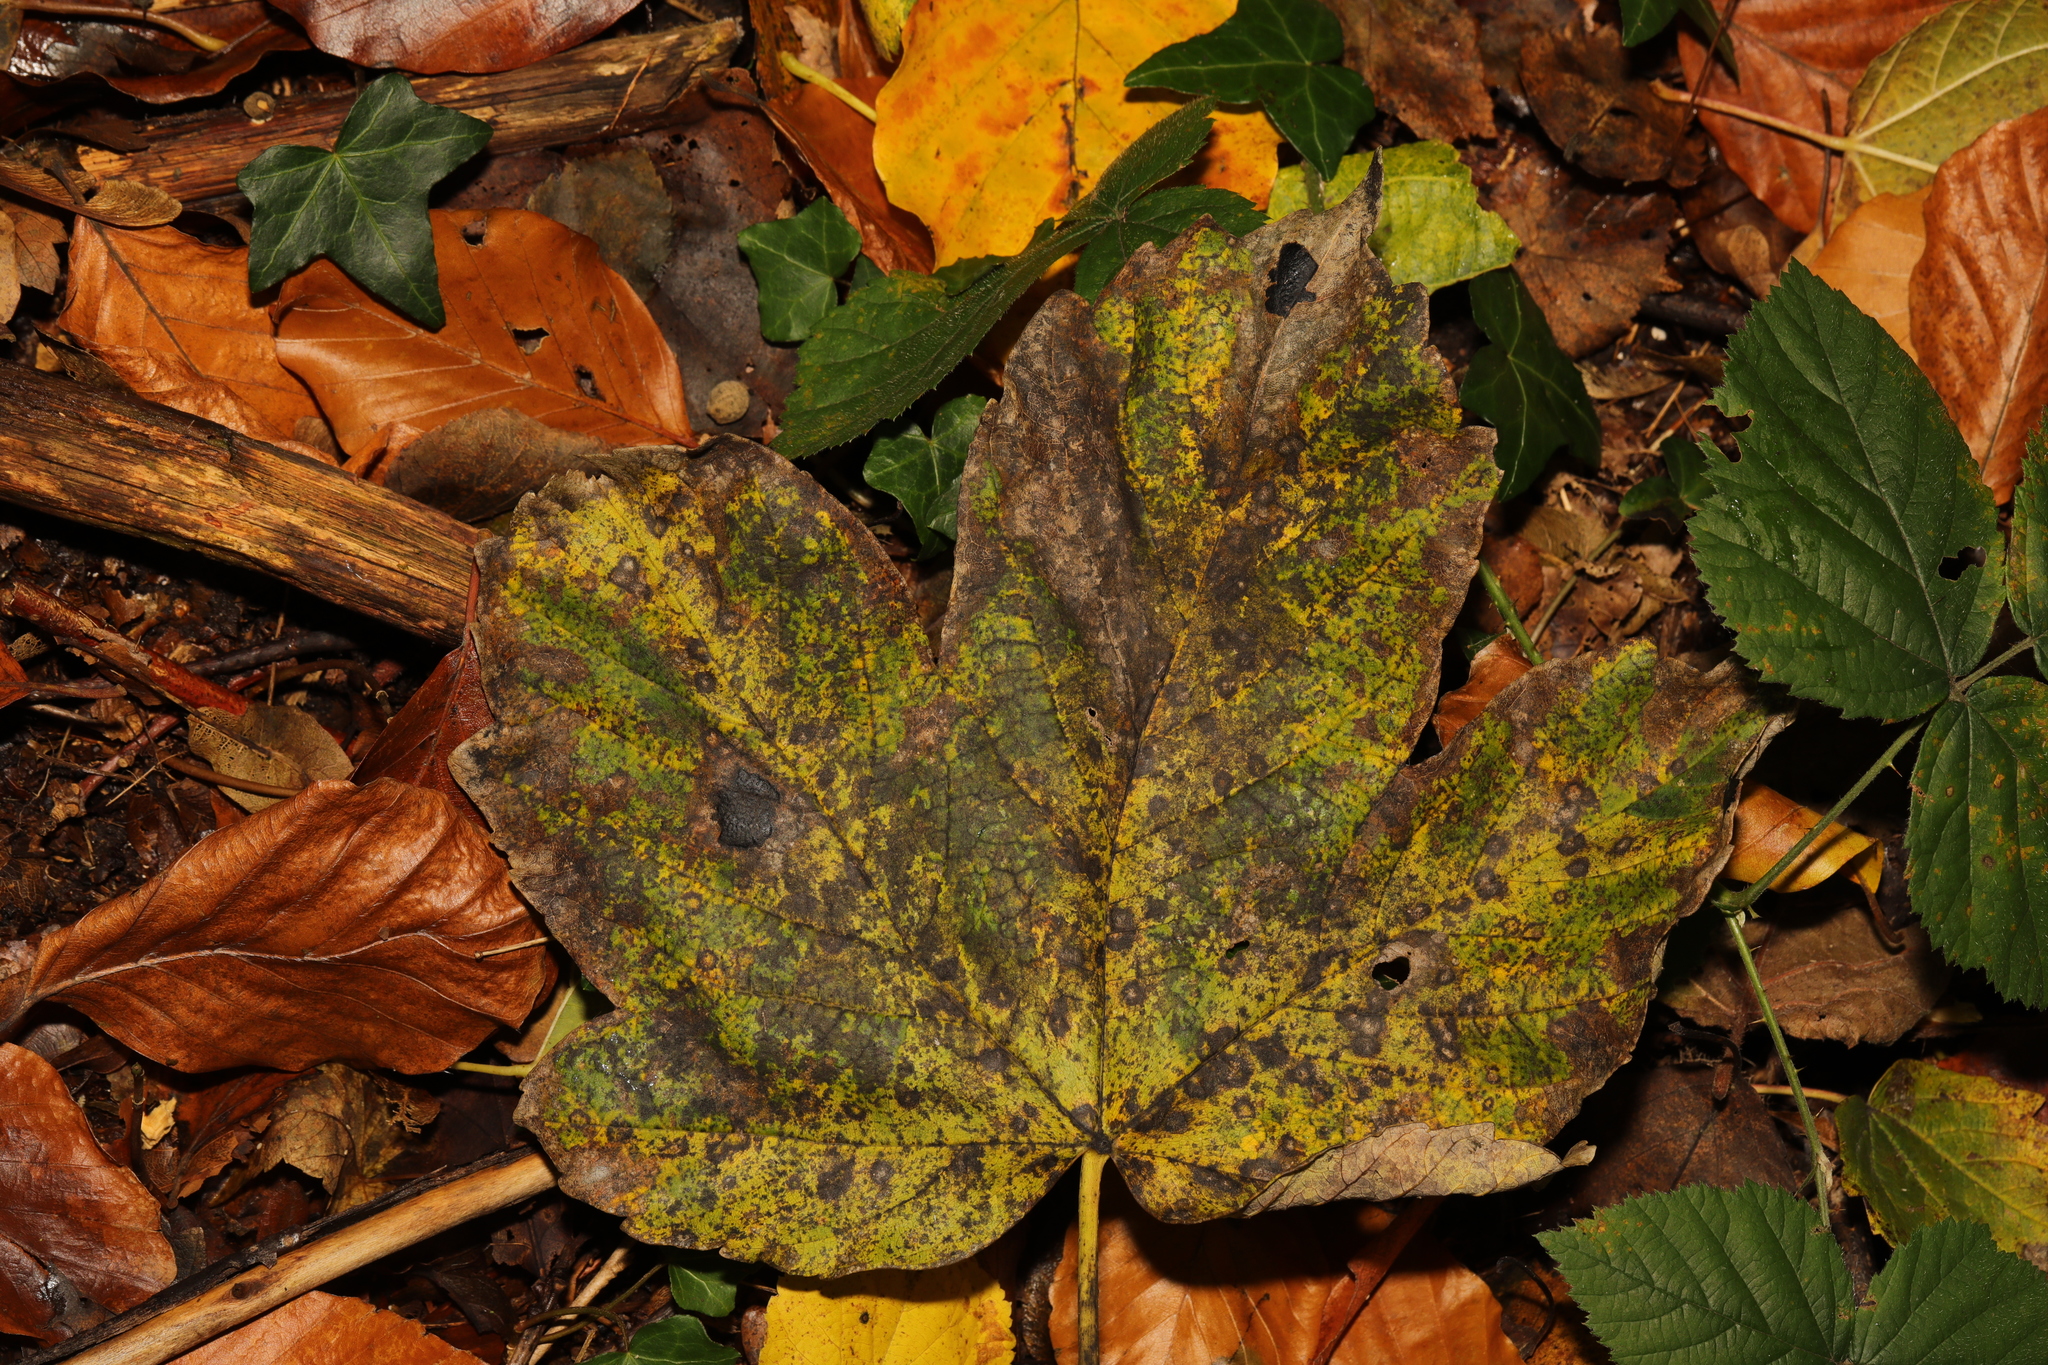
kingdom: Plantae
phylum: Tracheophyta
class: Magnoliopsida
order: Sapindales
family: Sapindaceae
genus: Acer
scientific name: Acer pseudoplatanus
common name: Sycamore
